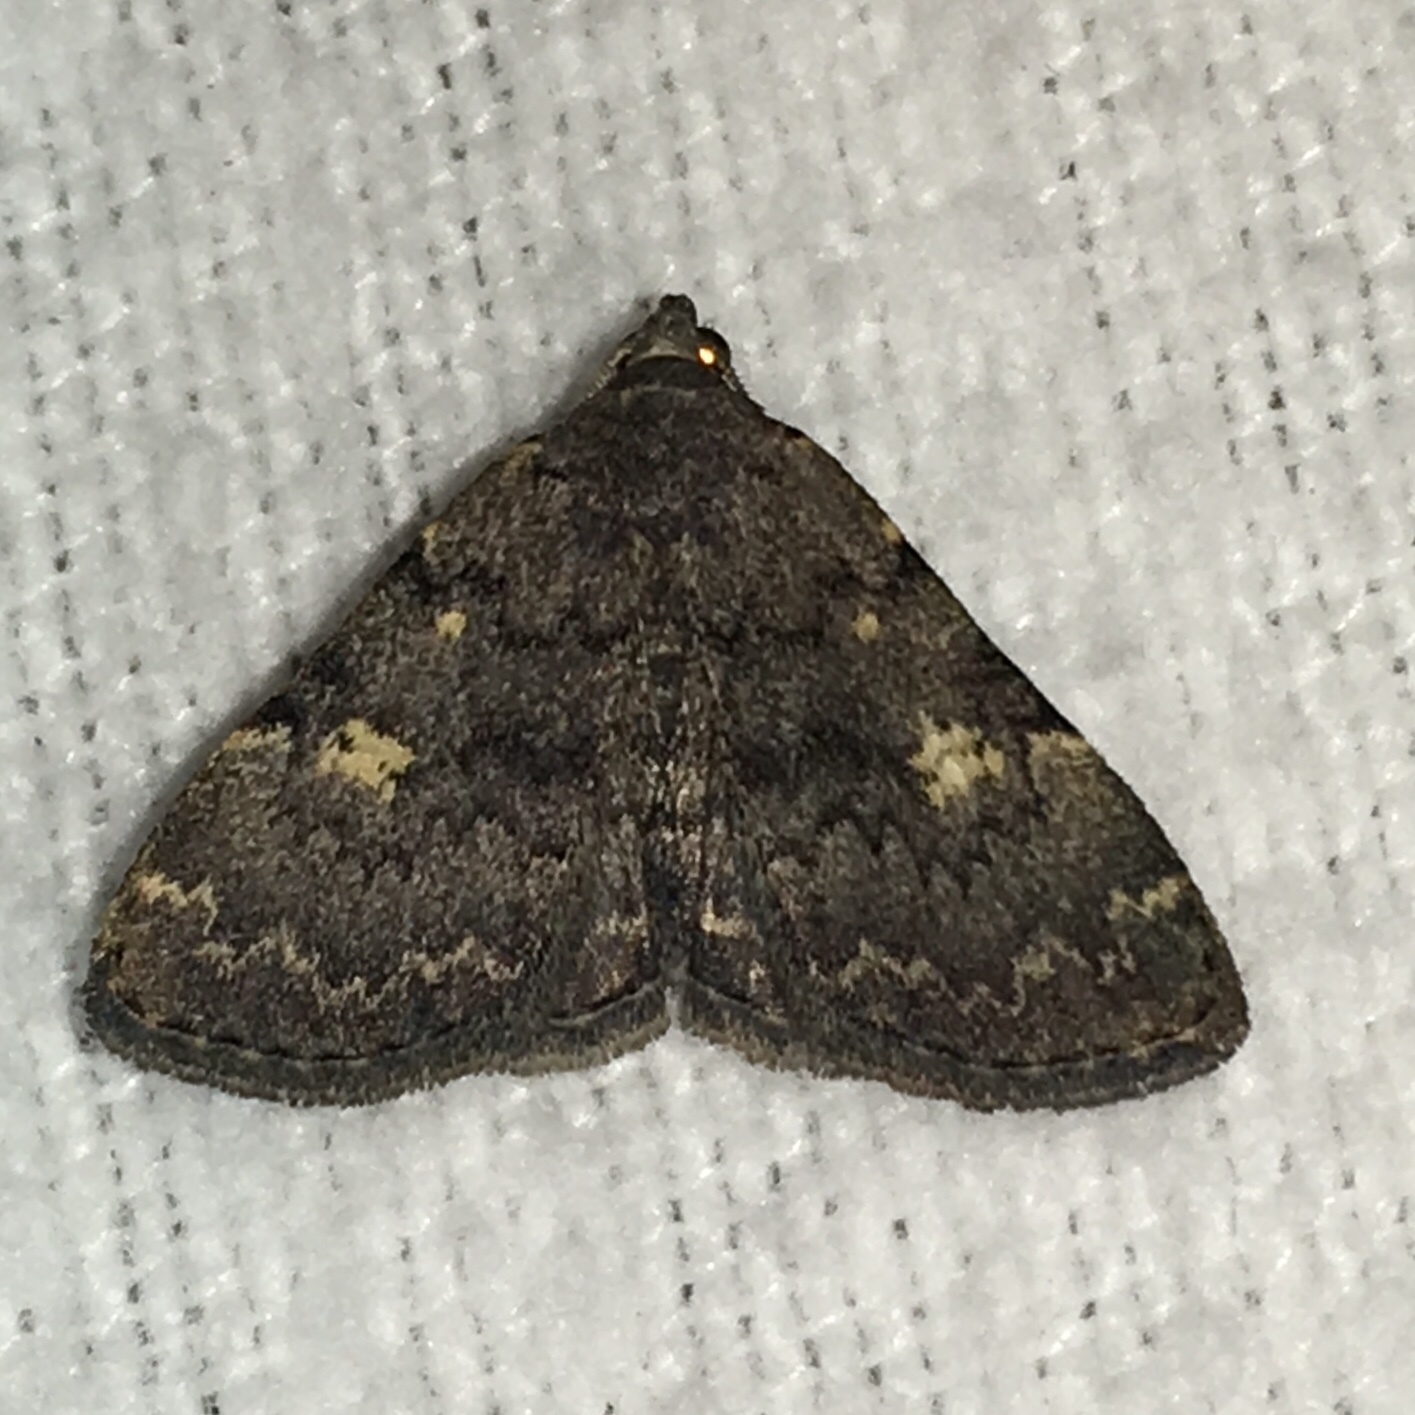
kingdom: Animalia
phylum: Arthropoda
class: Insecta
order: Lepidoptera
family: Erebidae
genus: Idia
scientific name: Idia aemula
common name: Common idia moth
